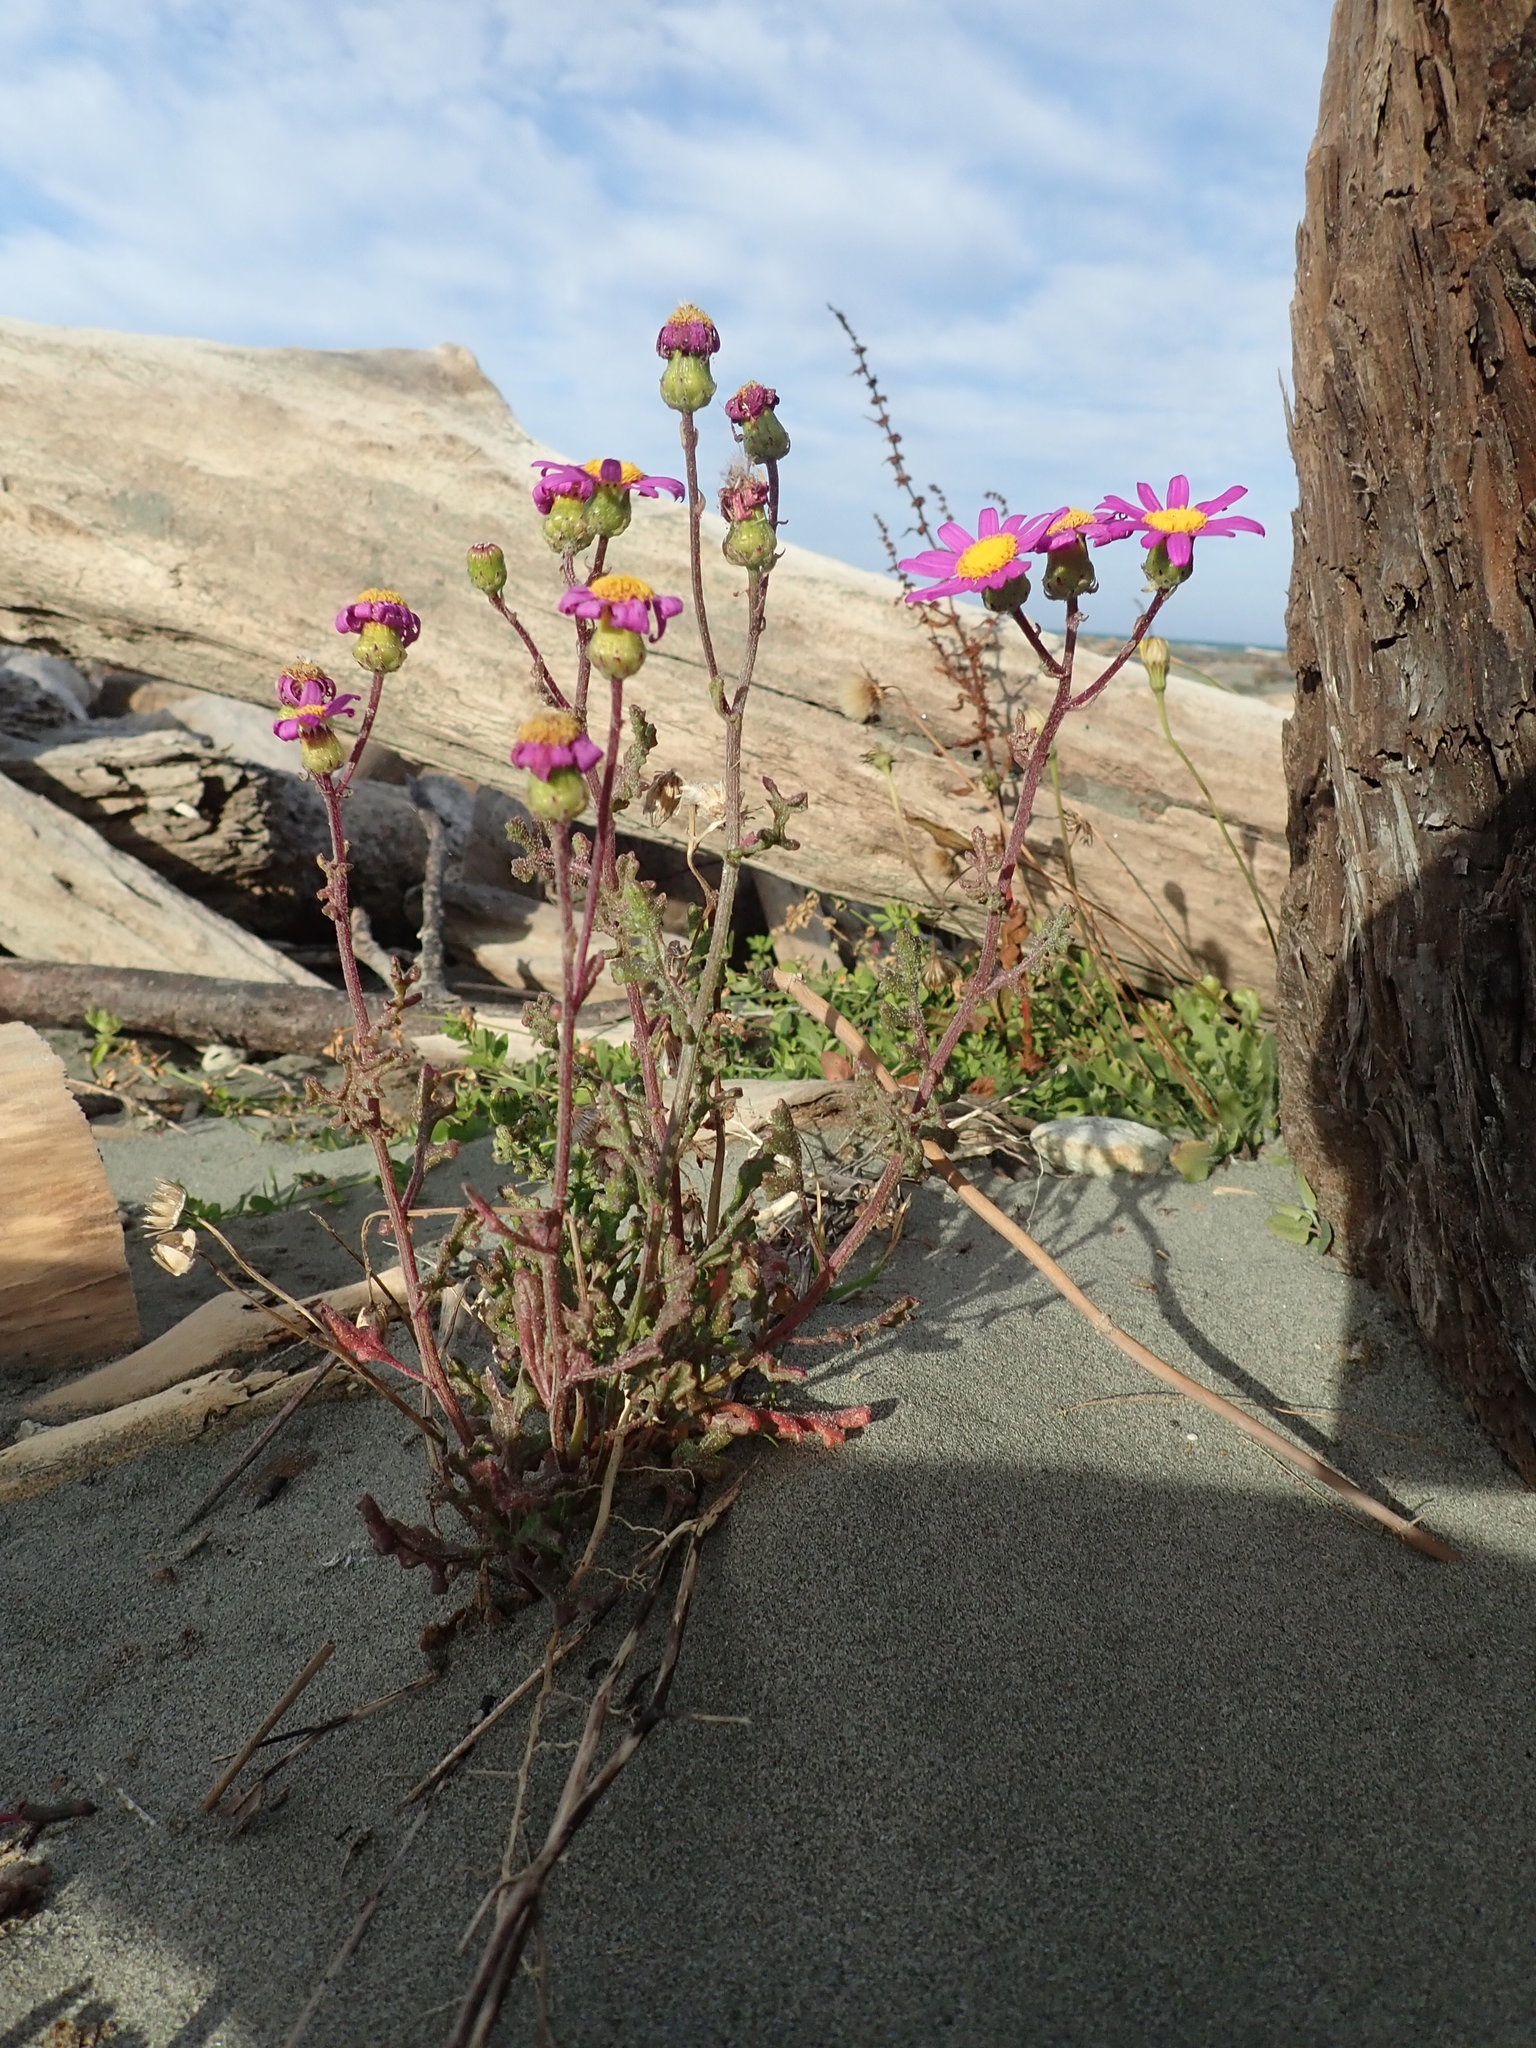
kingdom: Plantae
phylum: Tracheophyta
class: Magnoliopsida
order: Asterales
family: Asteraceae
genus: Senecio
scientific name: Senecio elegans
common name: Purple groundsel
